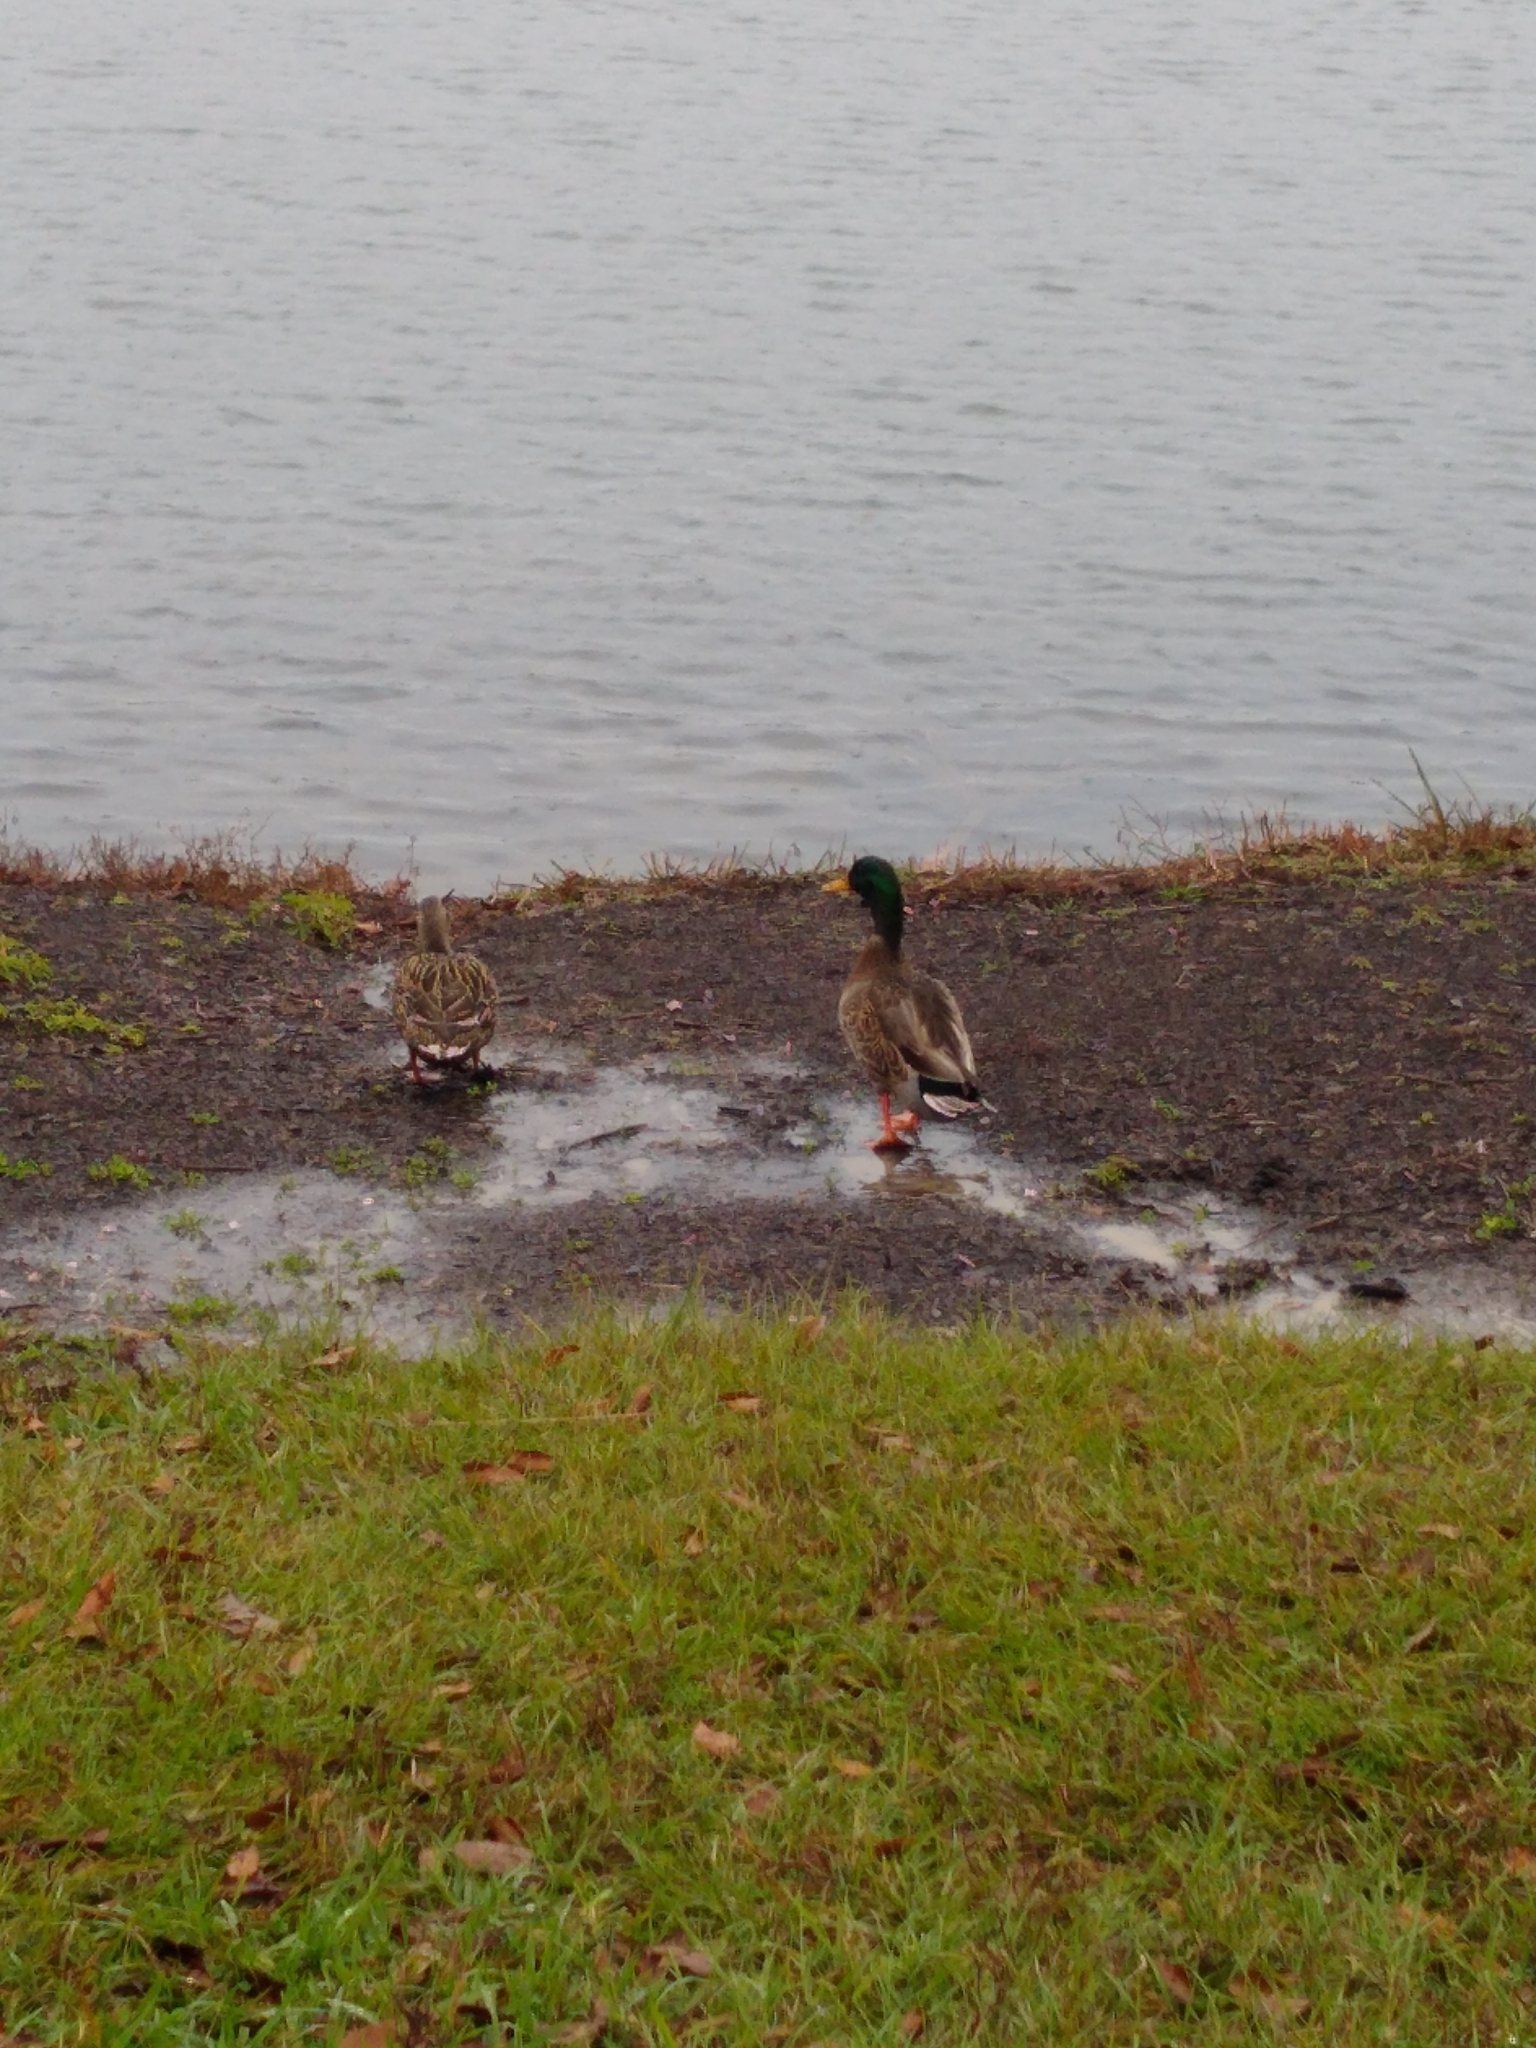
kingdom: Animalia
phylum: Chordata
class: Aves
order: Anseriformes
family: Anatidae
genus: Anas
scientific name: Anas platyrhynchos
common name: Mallard
